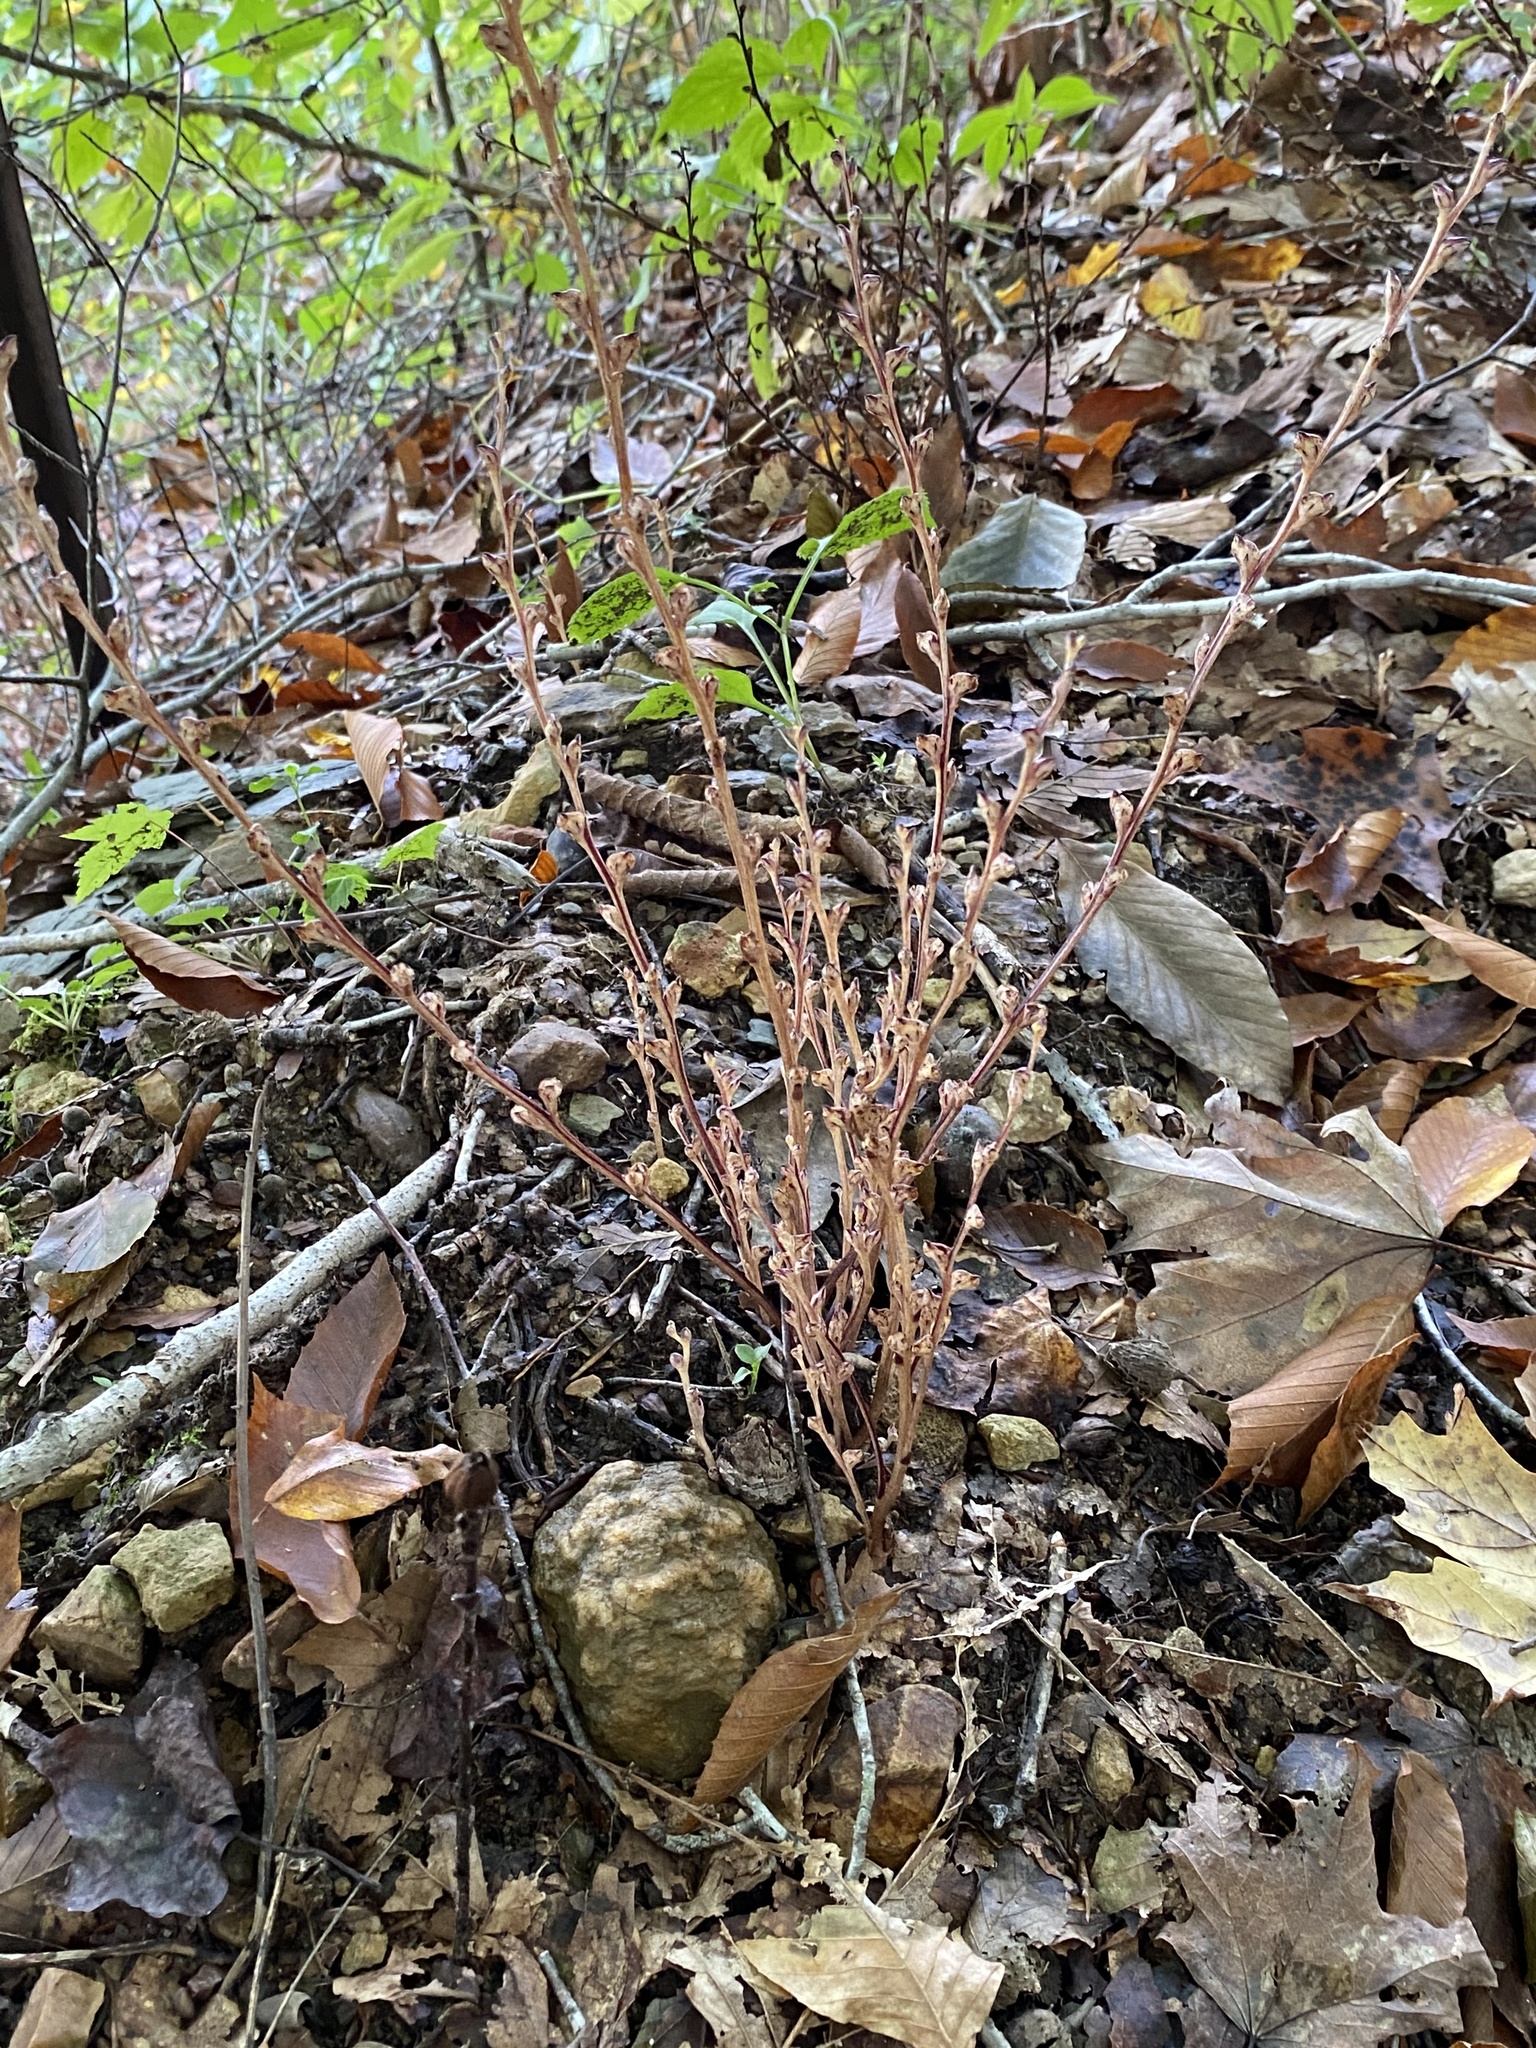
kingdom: Plantae
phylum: Tracheophyta
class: Magnoliopsida
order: Lamiales
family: Orobanchaceae
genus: Epifagus
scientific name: Epifagus virginiana
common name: Beechdrops
